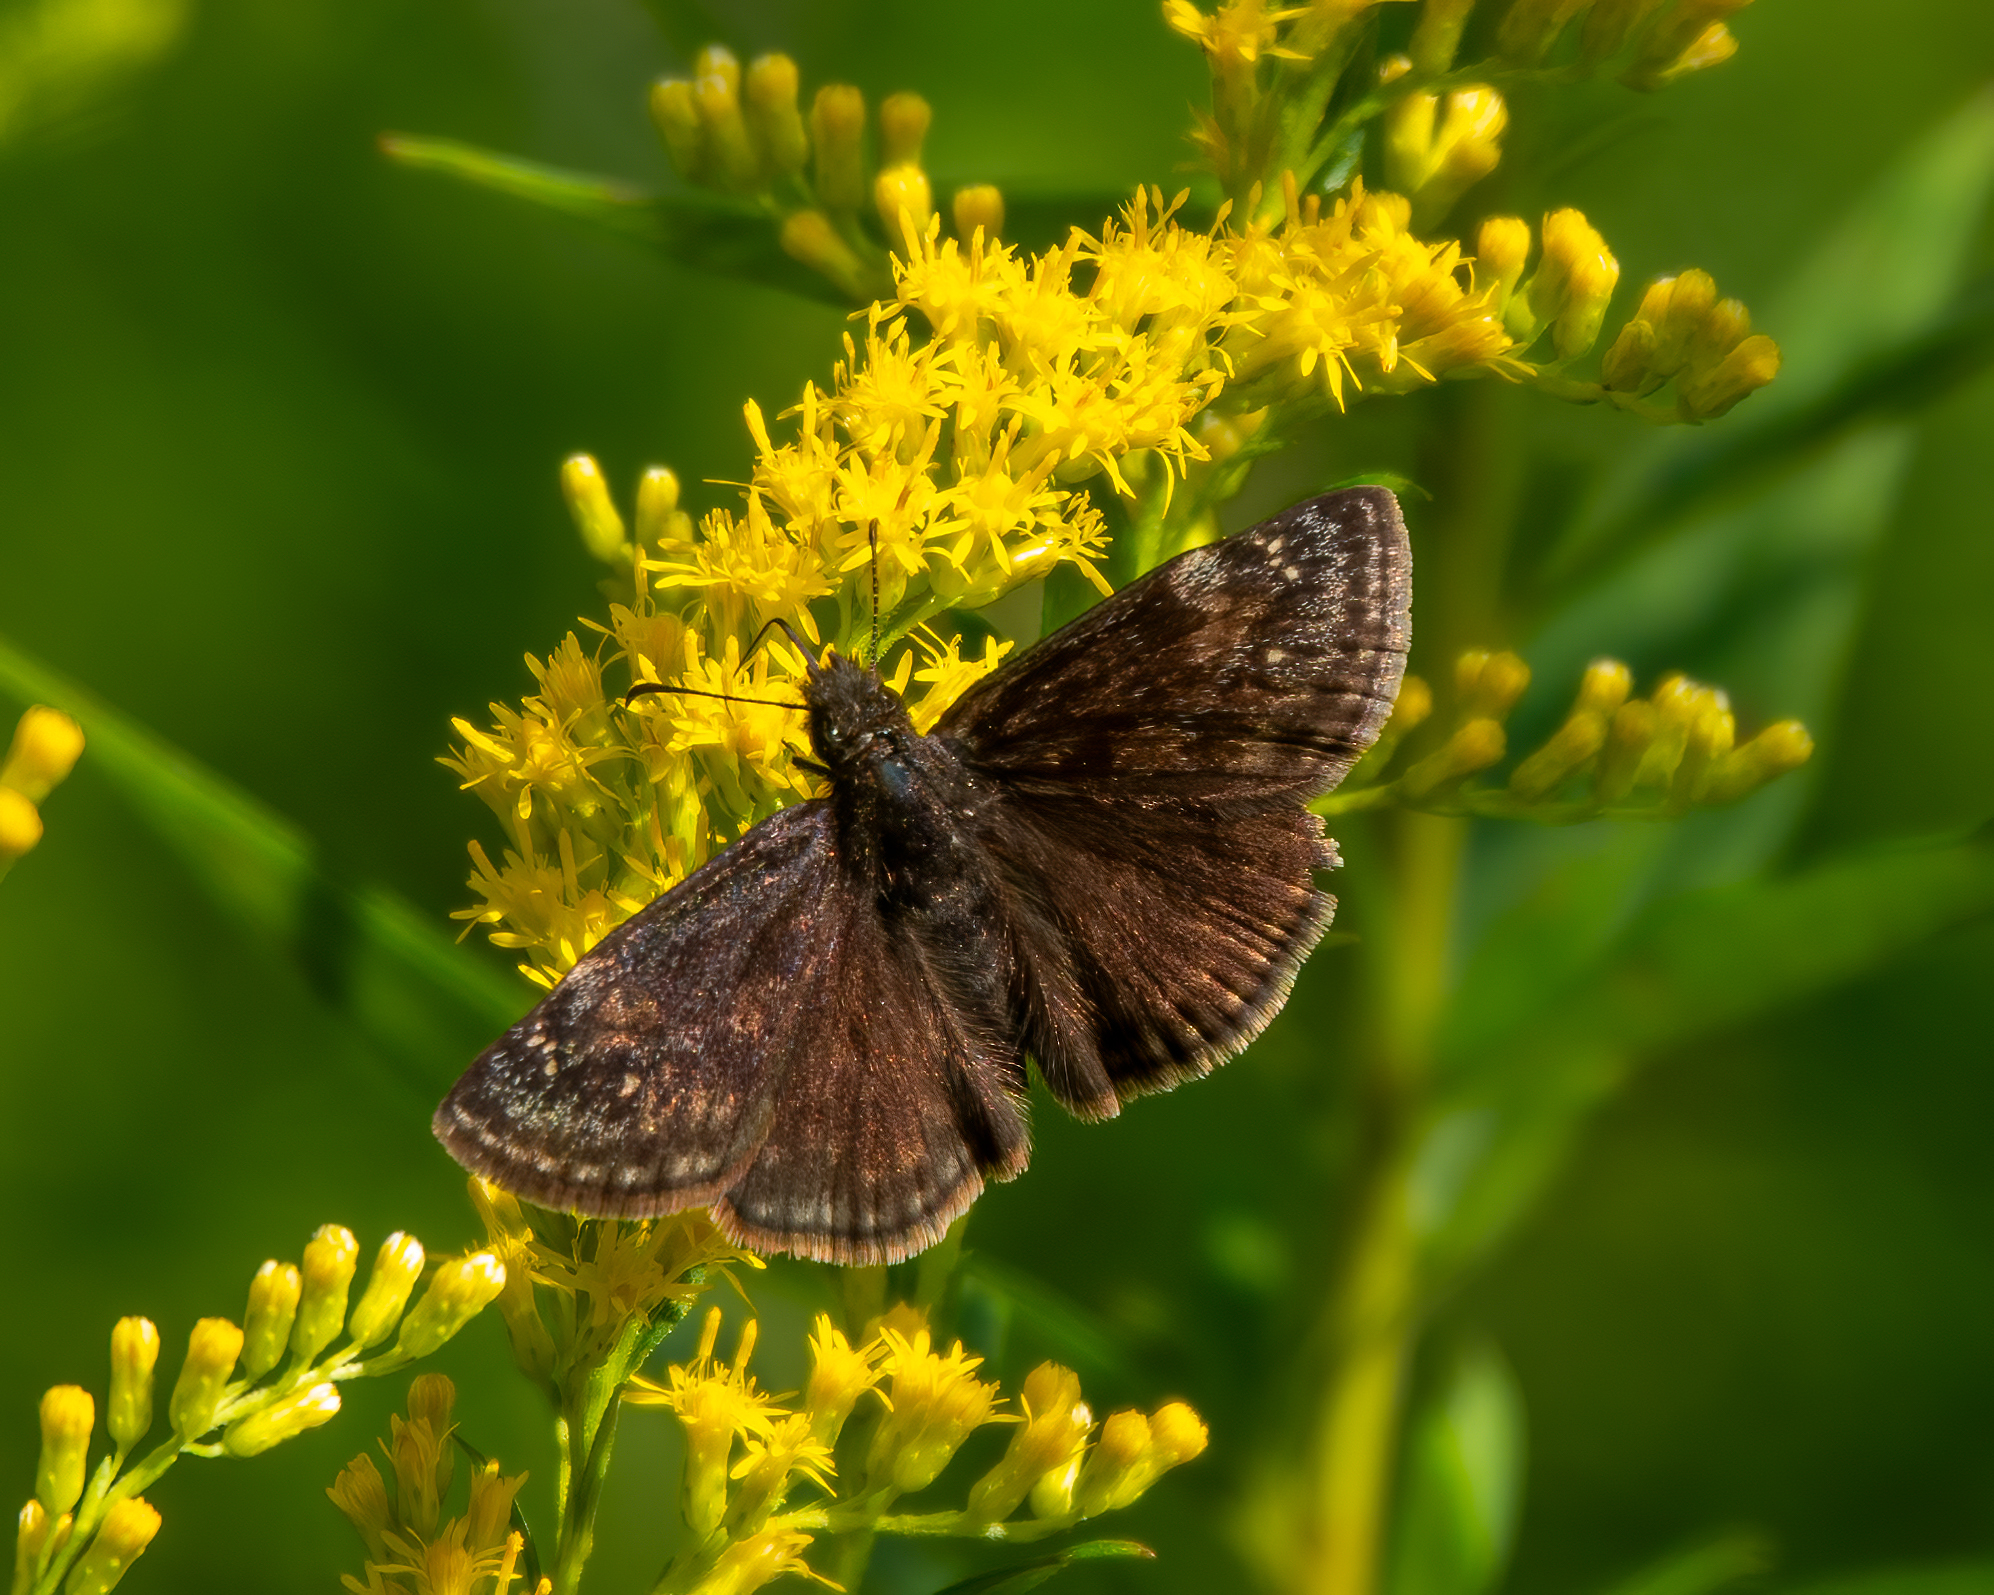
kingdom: Animalia
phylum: Arthropoda
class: Insecta
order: Lepidoptera
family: Hesperiidae
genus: Erynnis
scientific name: Erynnis baptisiae
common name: Wild indigo duskywing
